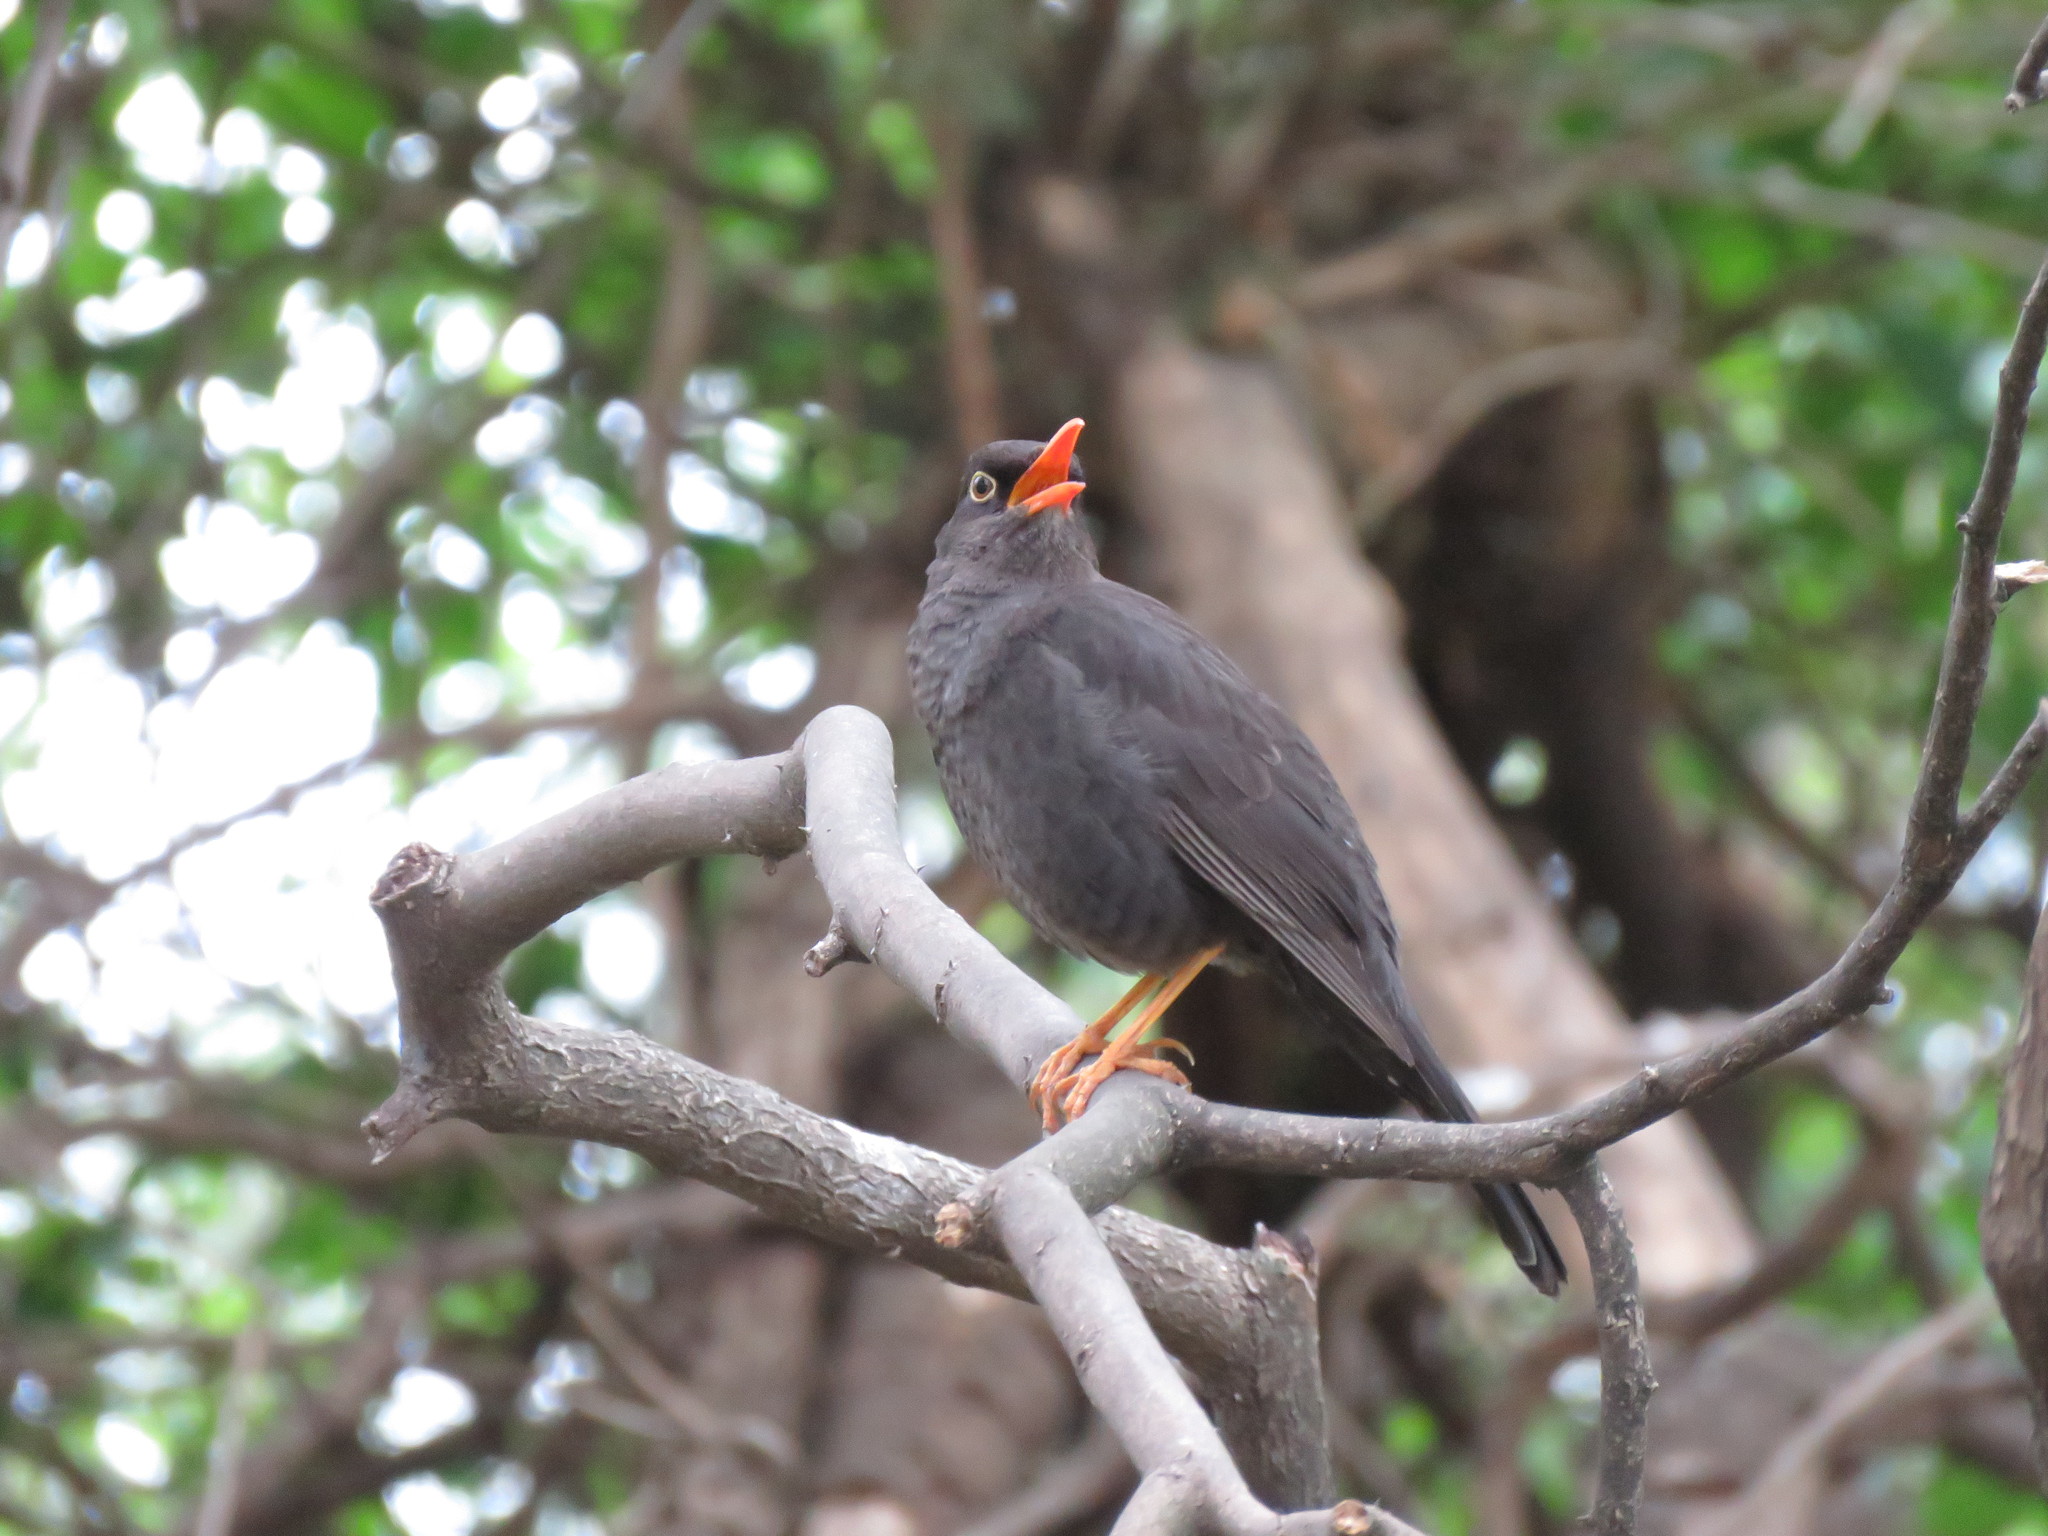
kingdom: Animalia
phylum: Chordata
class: Aves
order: Passeriformes
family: Turdidae
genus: Turdus
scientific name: Turdus chiguanco
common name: Chiguanco thrush
